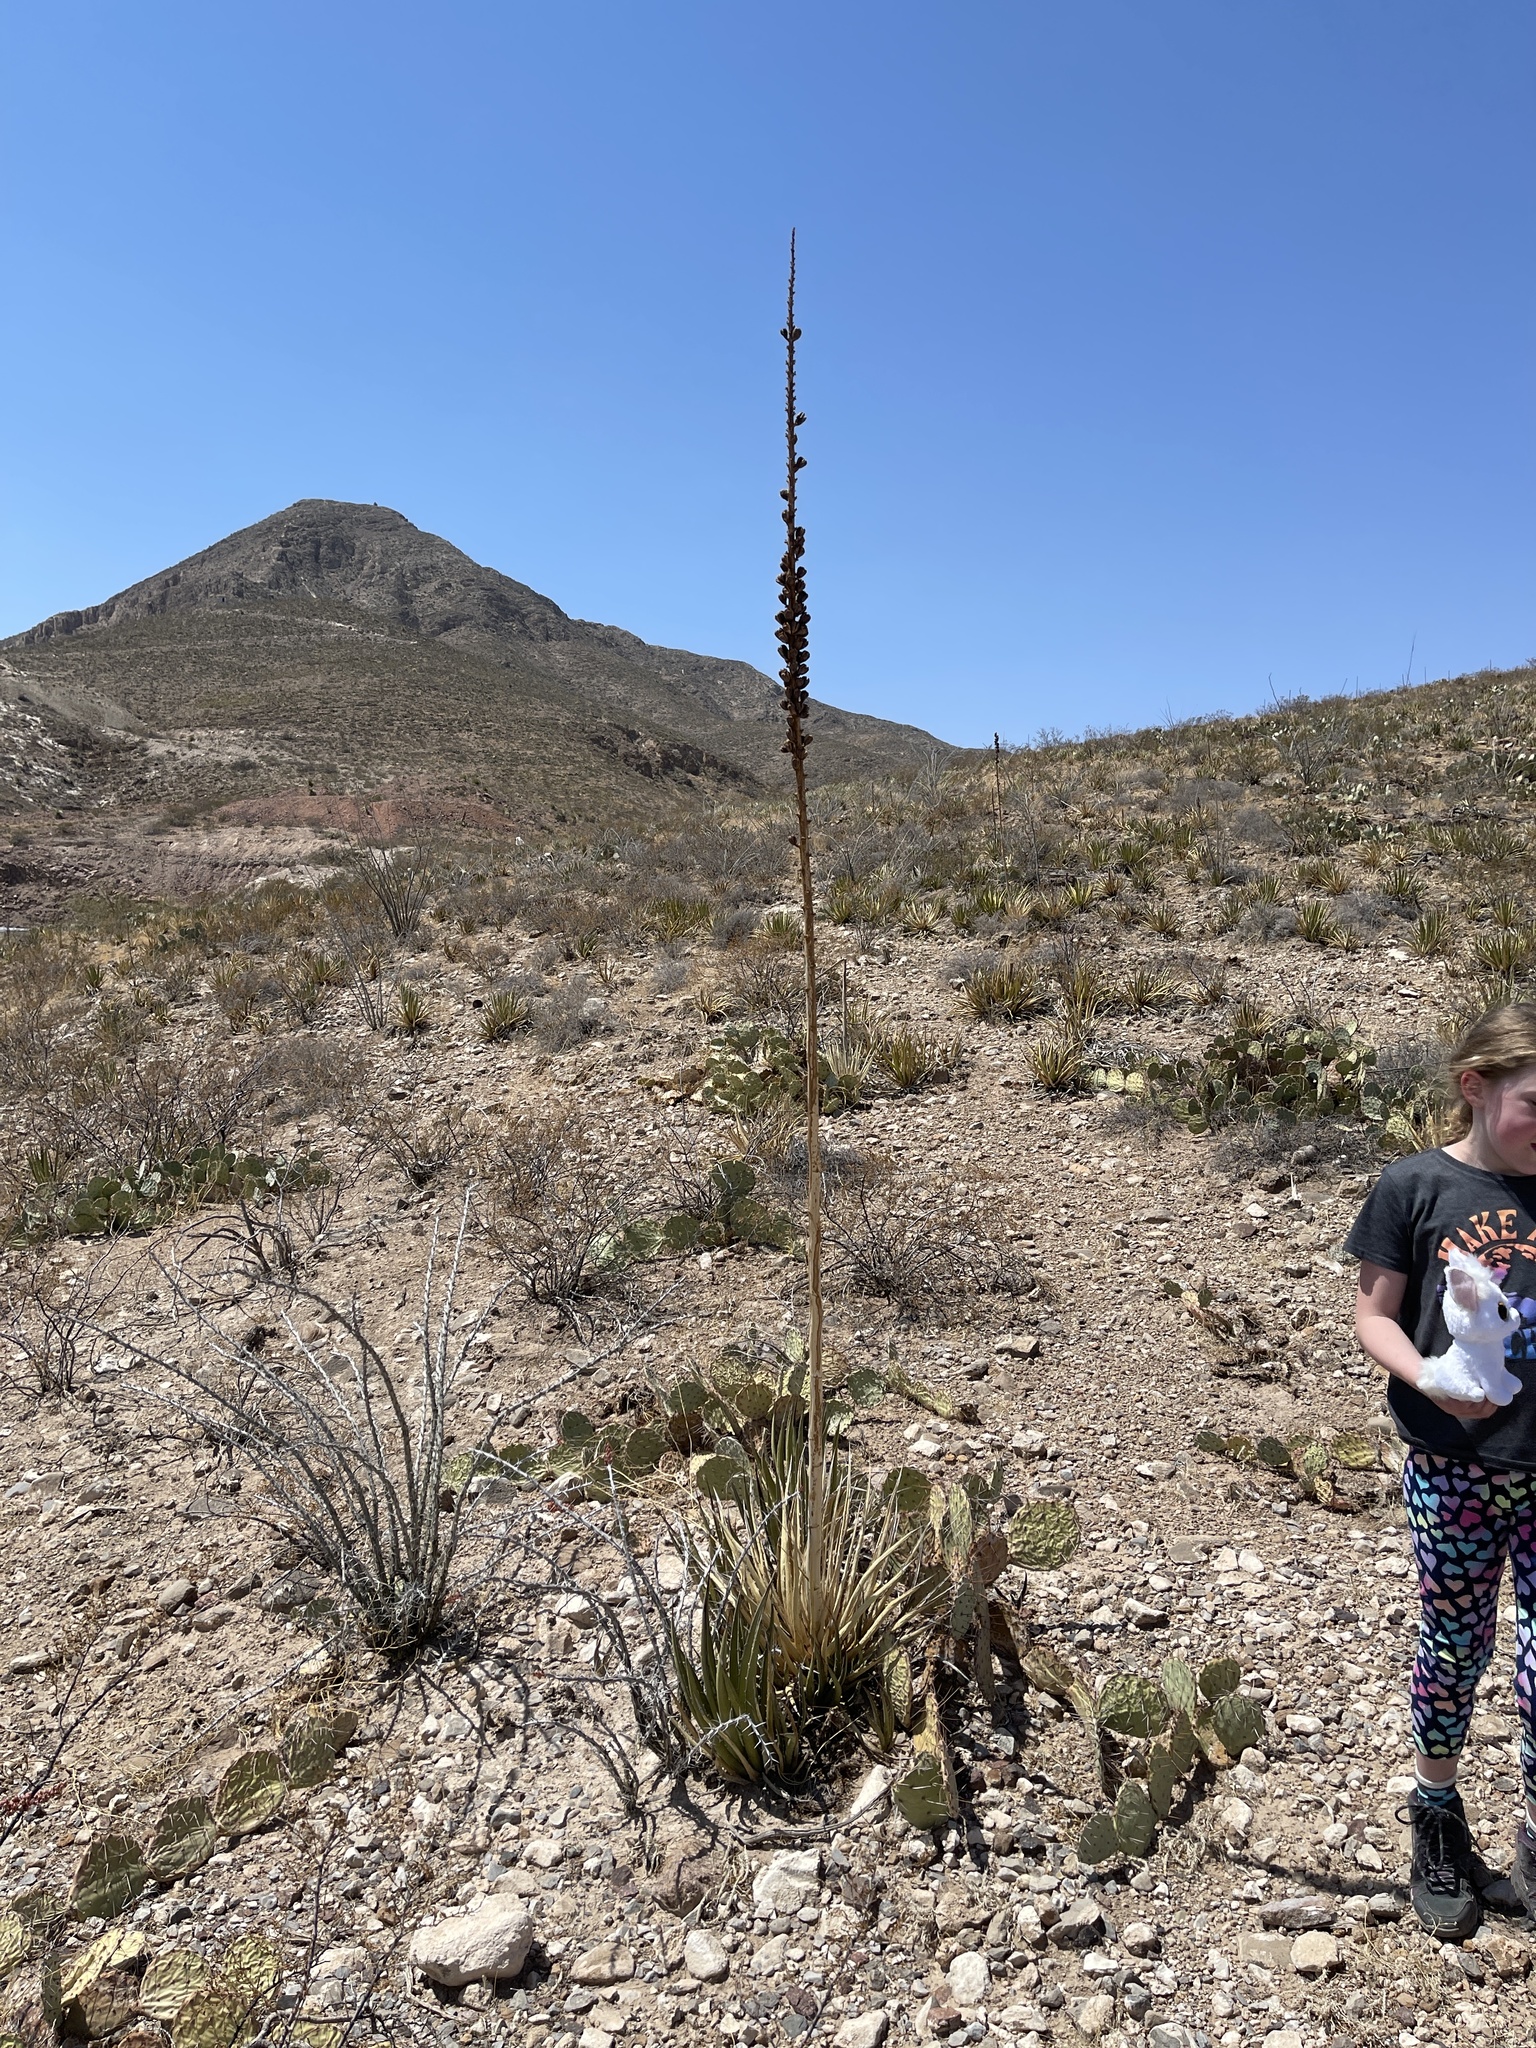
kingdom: Plantae
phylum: Tracheophyta
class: Liliopsida
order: Asparagales
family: Asparagaceae
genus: Agave
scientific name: Agave lechuguilla
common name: Lecheguilla agave
